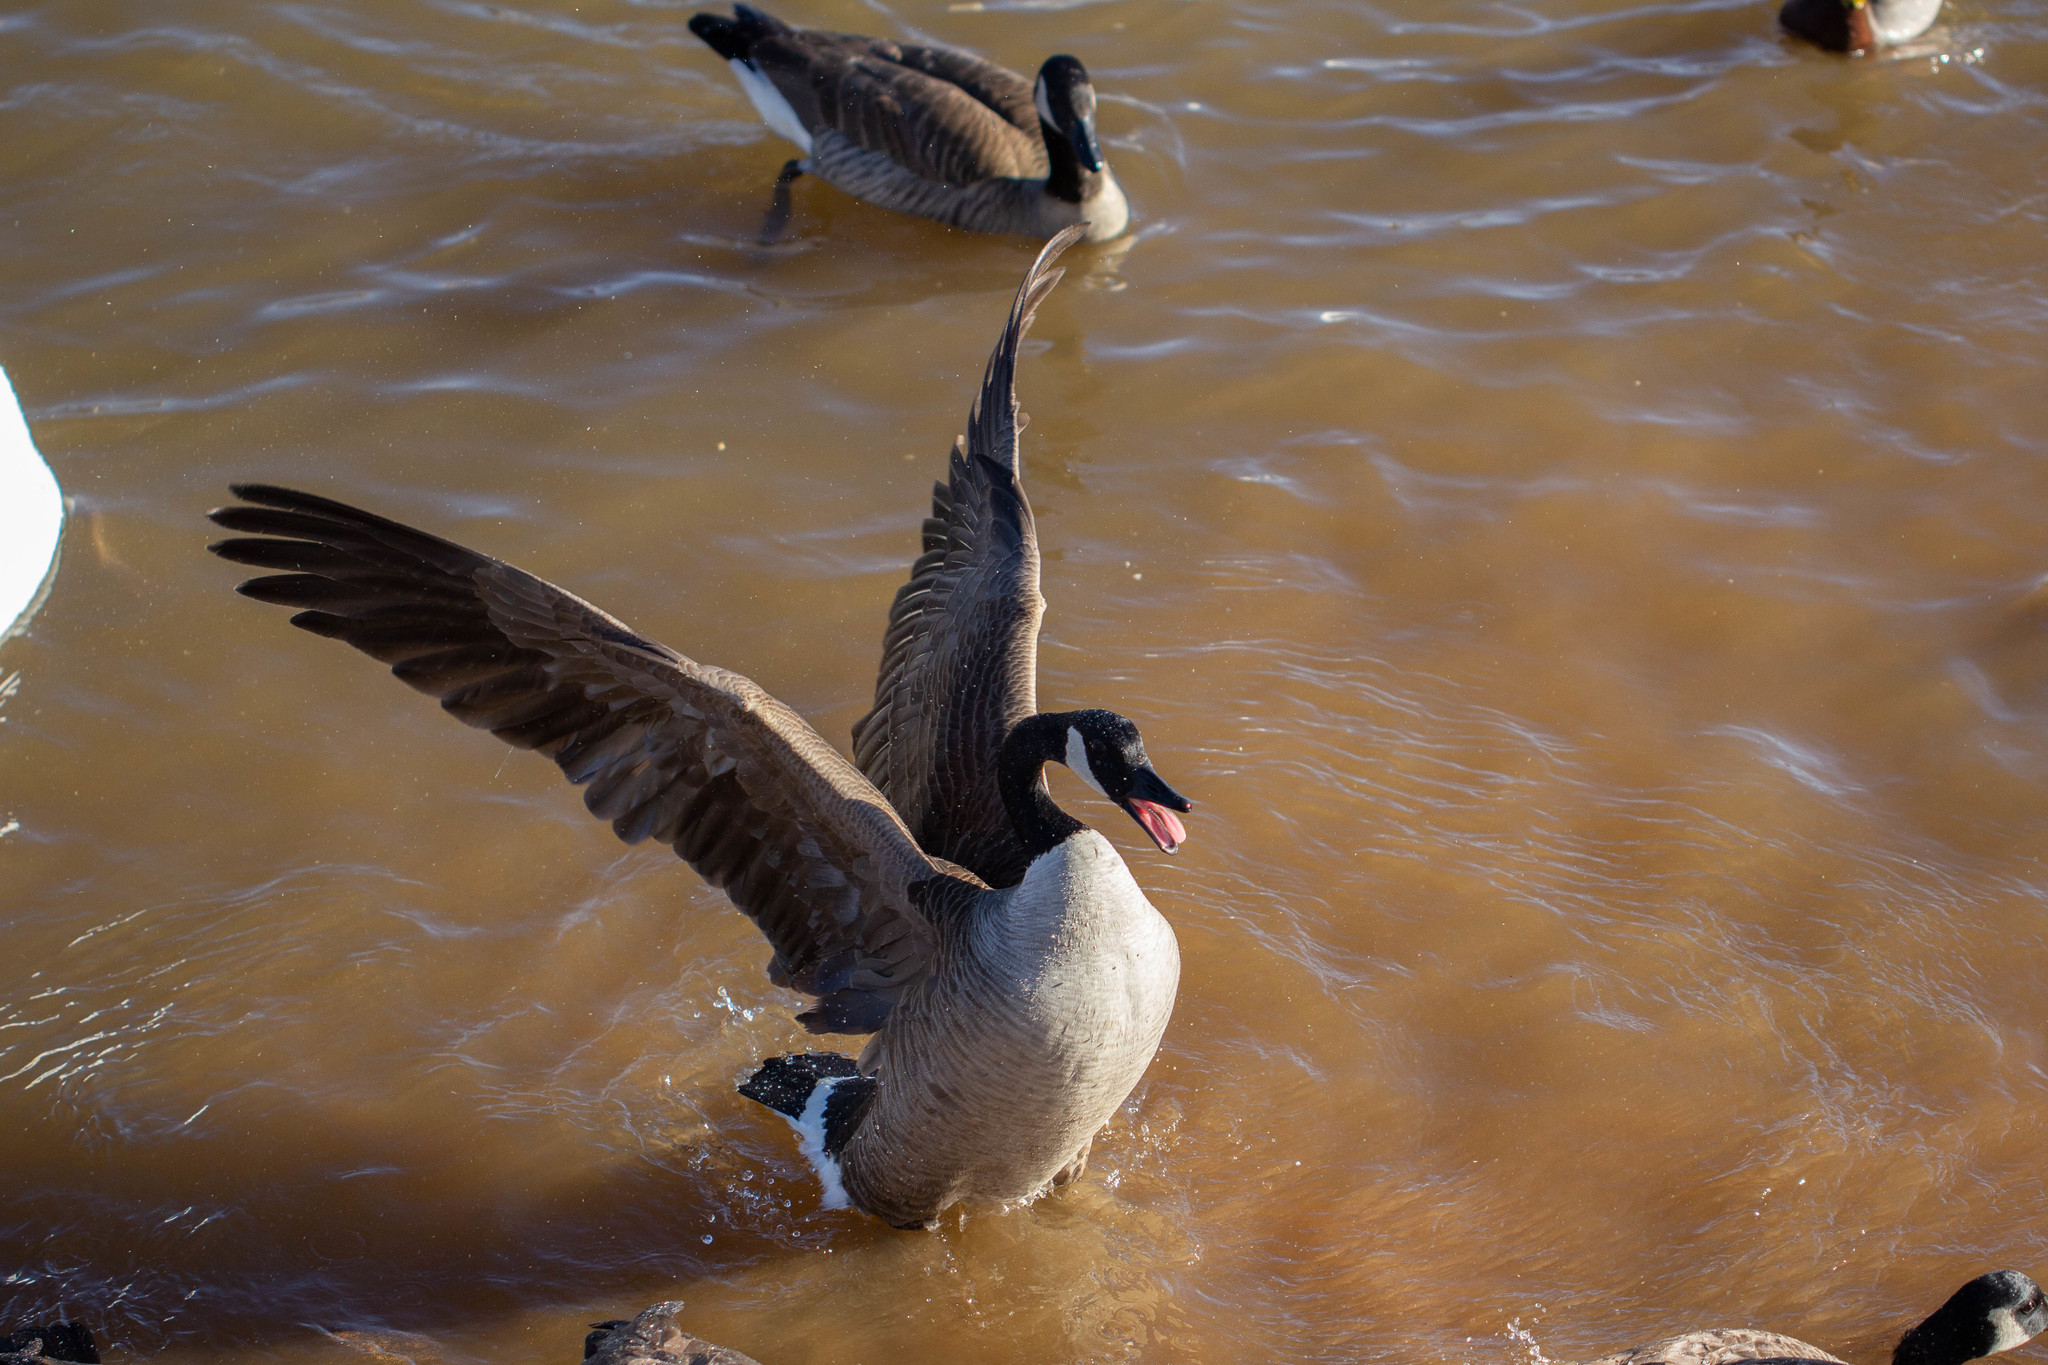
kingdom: Animalia
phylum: Chordata
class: Aves
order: Anseriformes
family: Anatidae
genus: Branta
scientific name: Branta canadensis
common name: Canada goose
